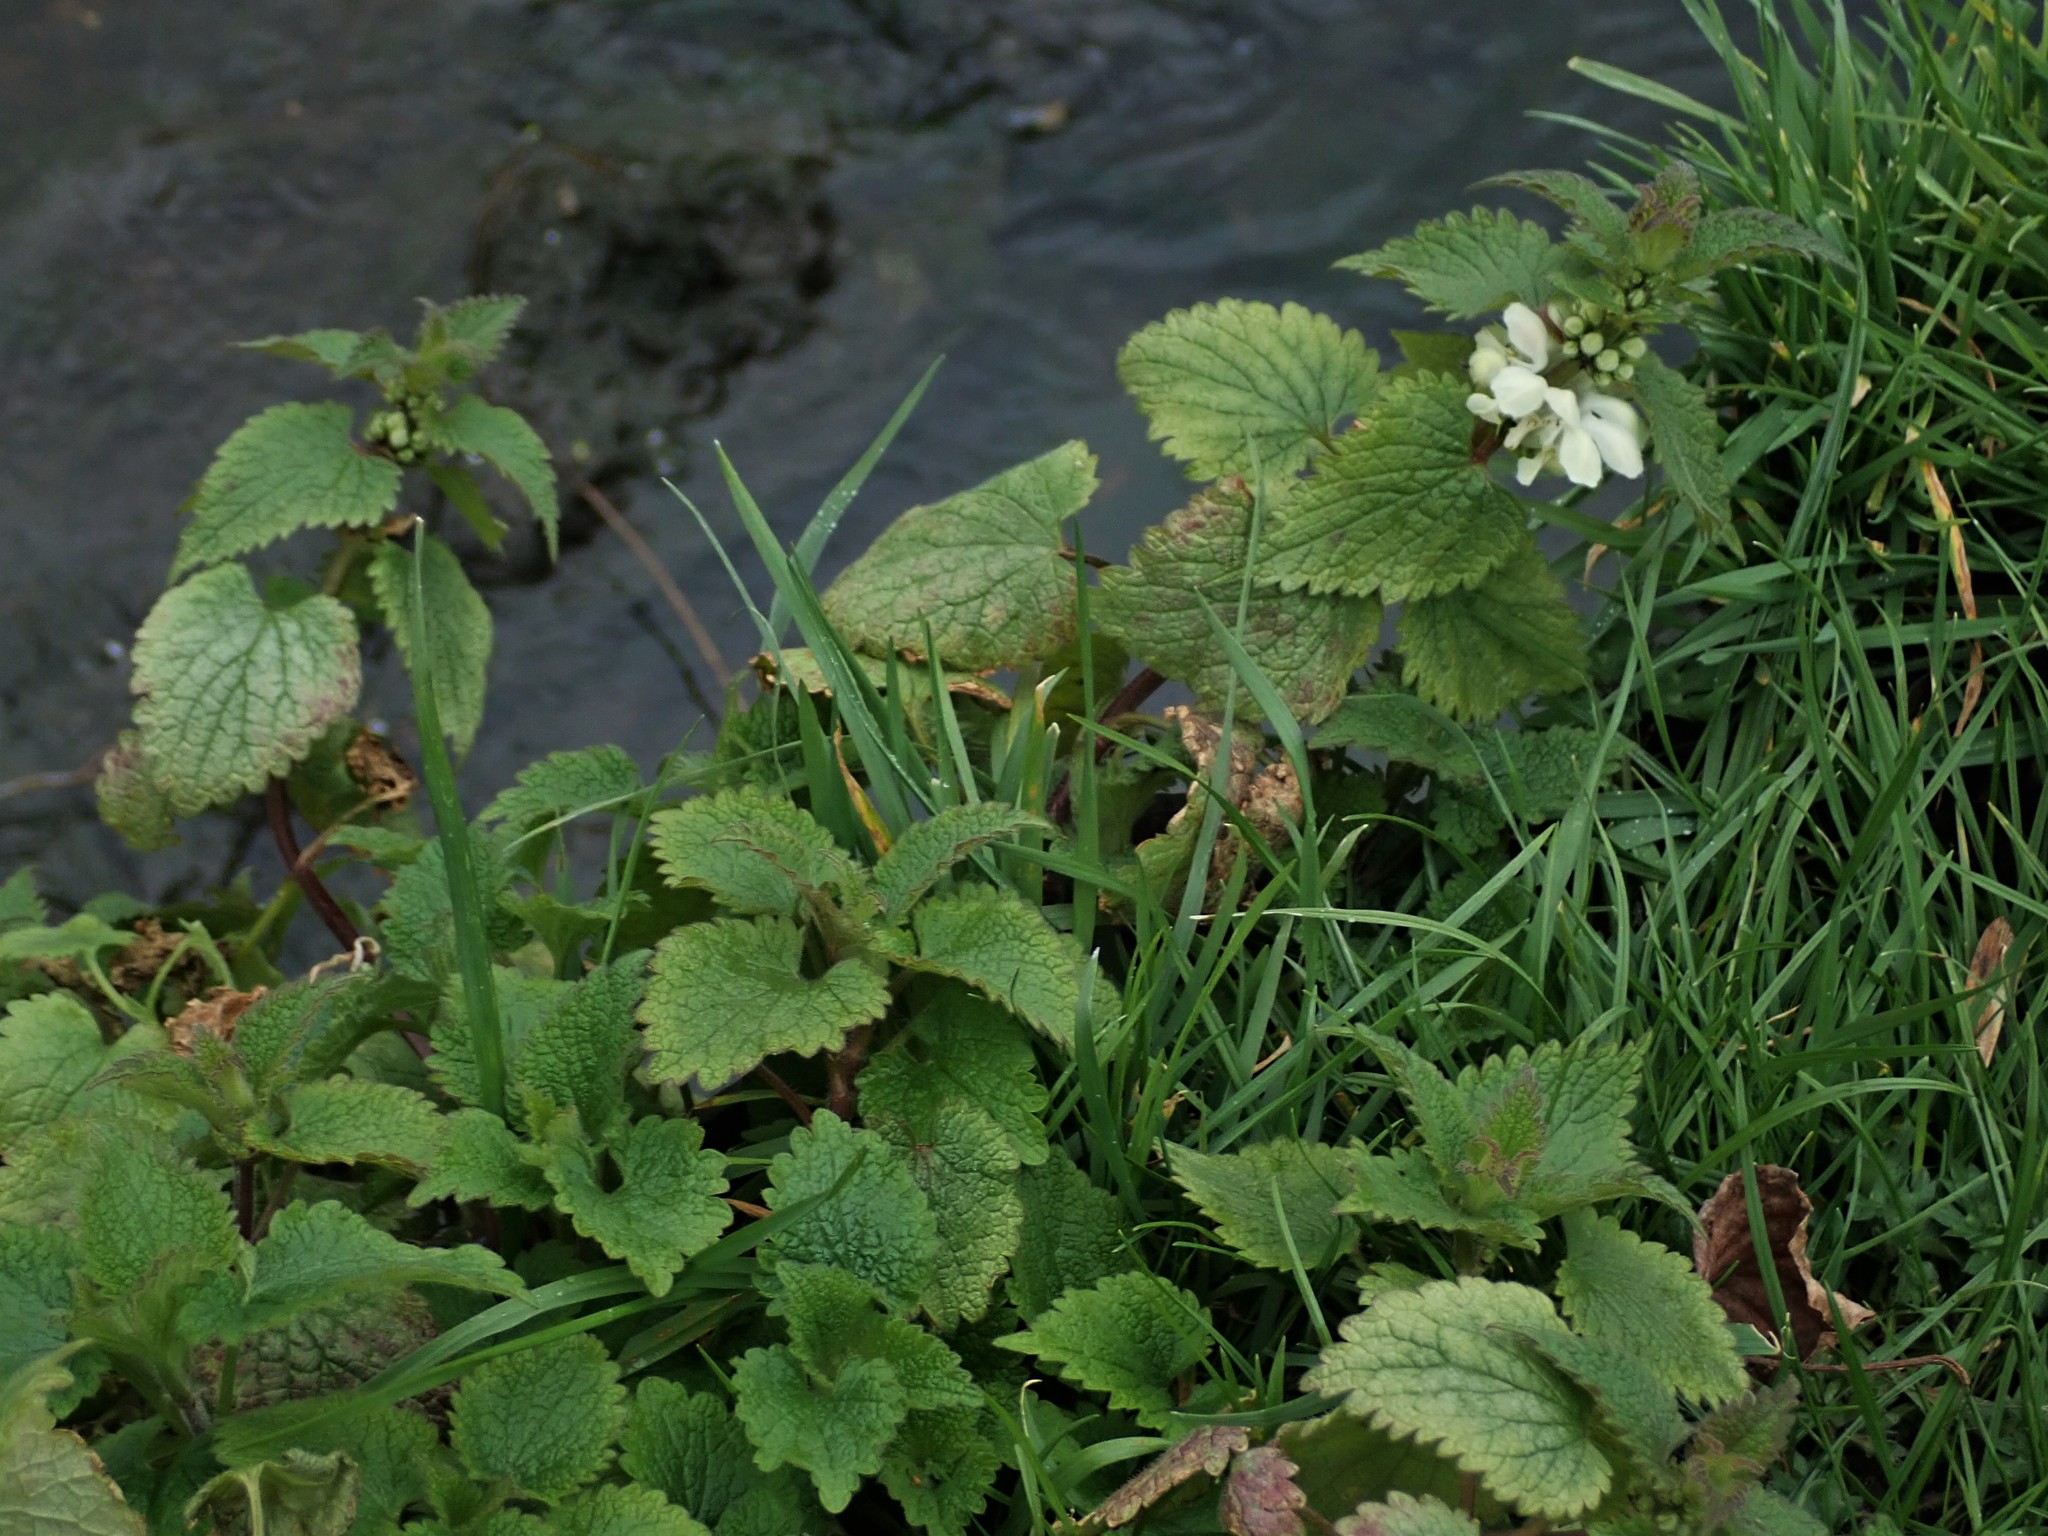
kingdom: Plantae
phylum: Tracheophyta
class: Magnoliopsida
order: Lamiales
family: Lamiaceae
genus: Lamium
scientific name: Lamium album
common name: White dead-nettle
